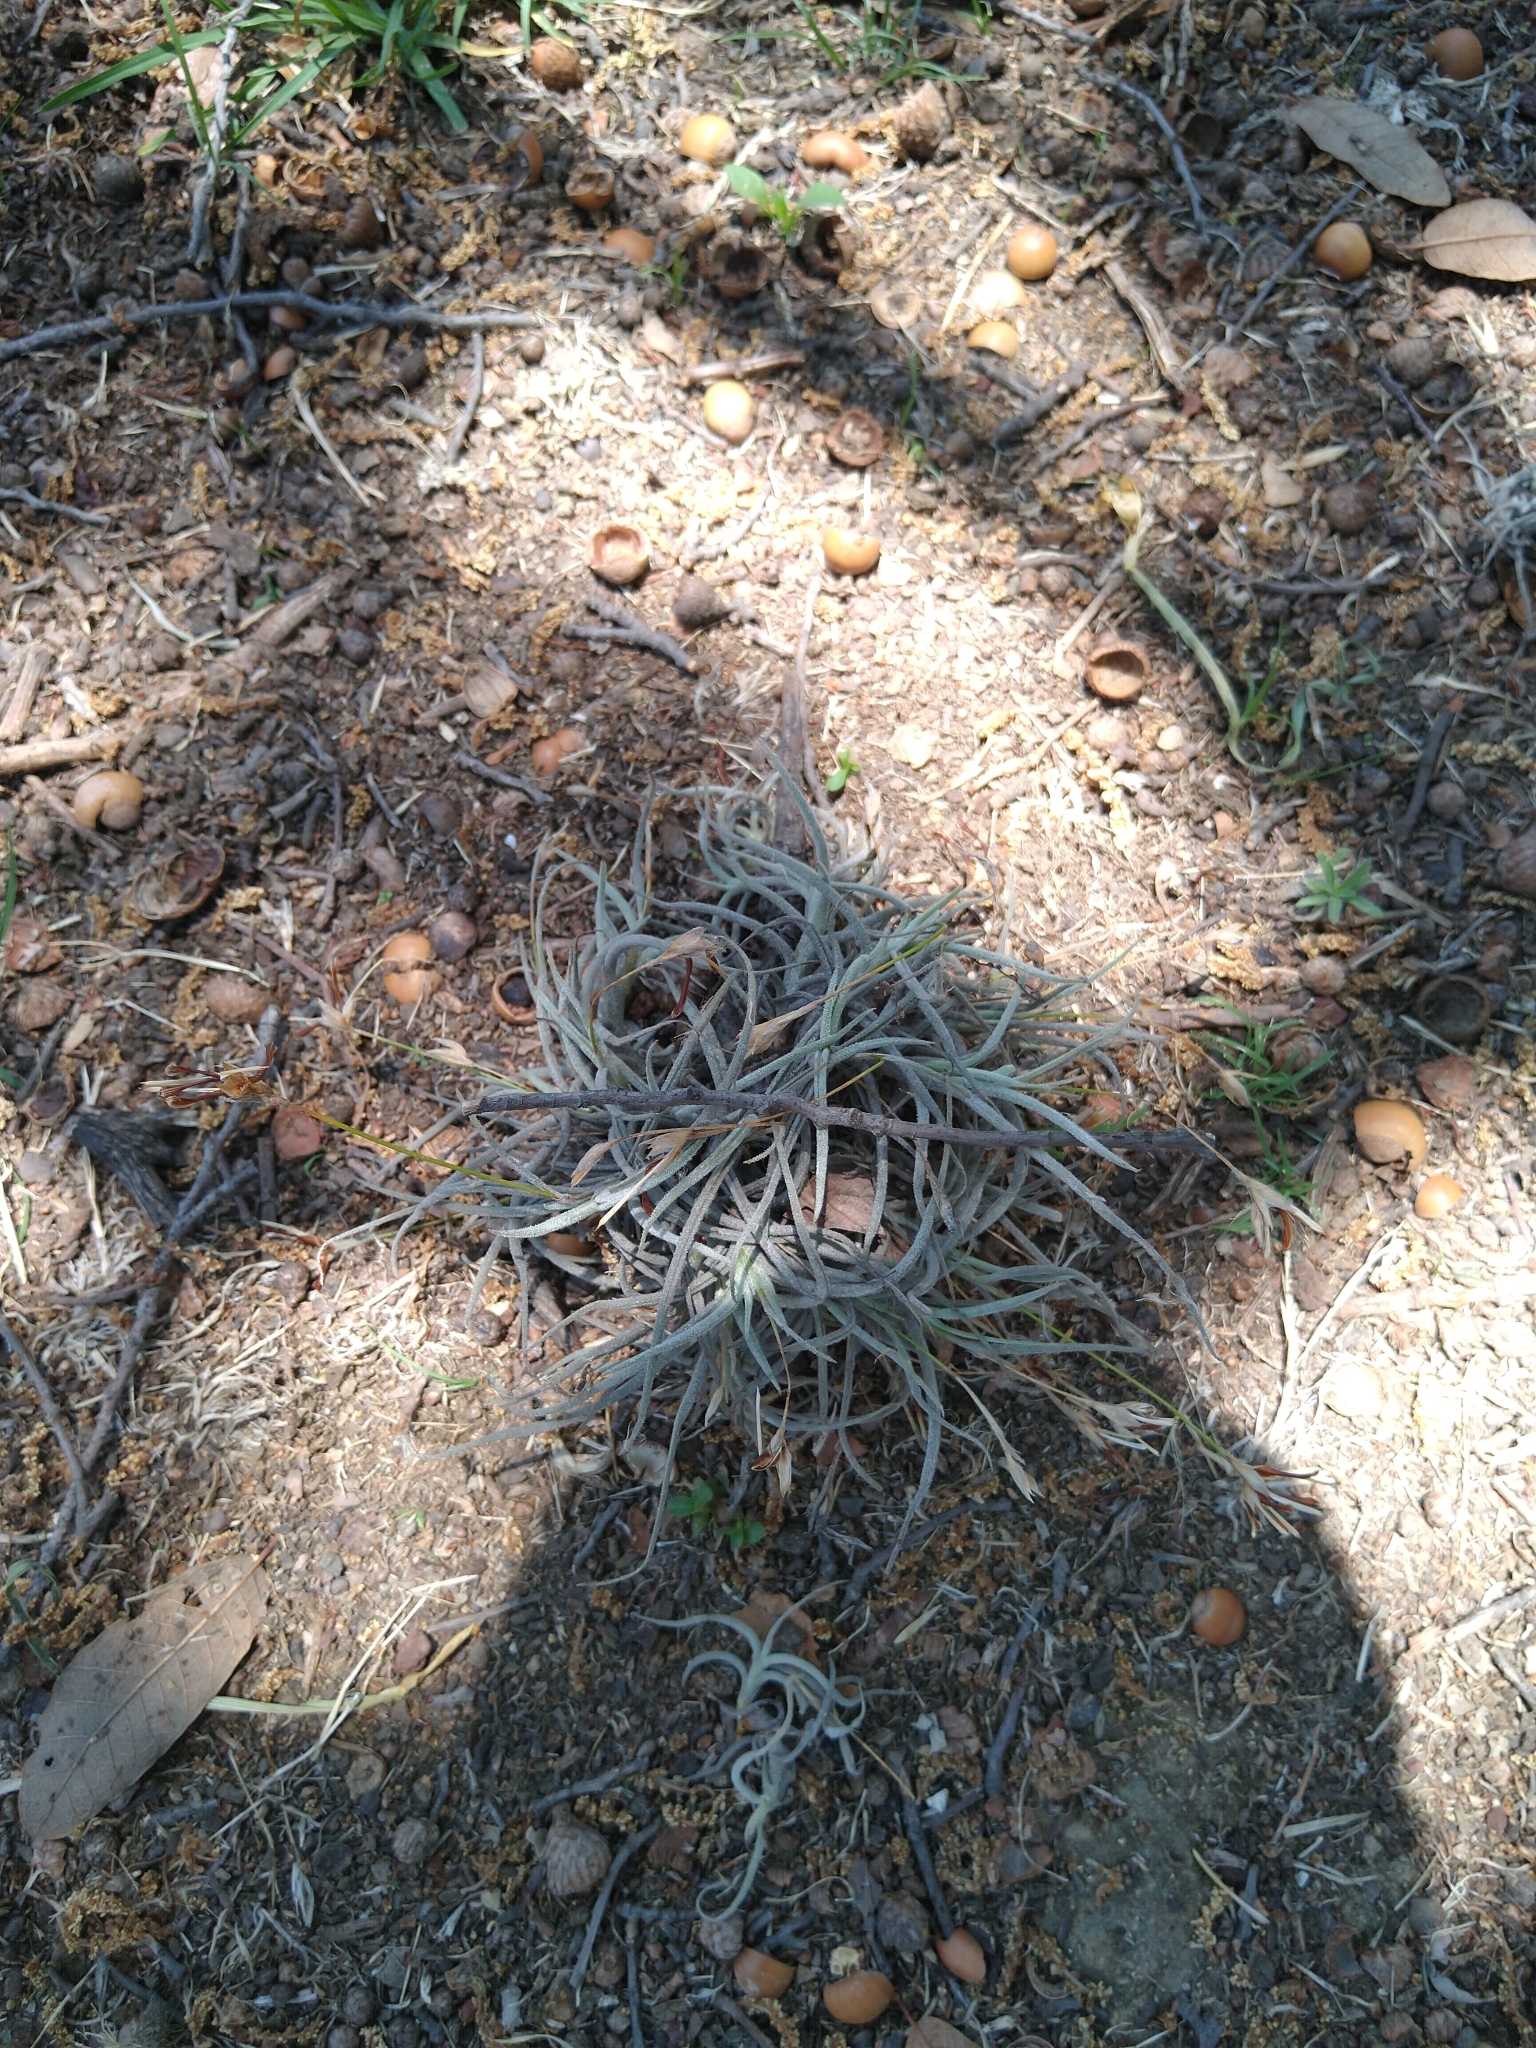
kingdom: Plantae
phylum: Tracheophyta
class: Liliopsida
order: Poales
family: Bromeliaceae
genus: Tillandsia
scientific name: Tillandsia recurvata
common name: Small ballmoss
